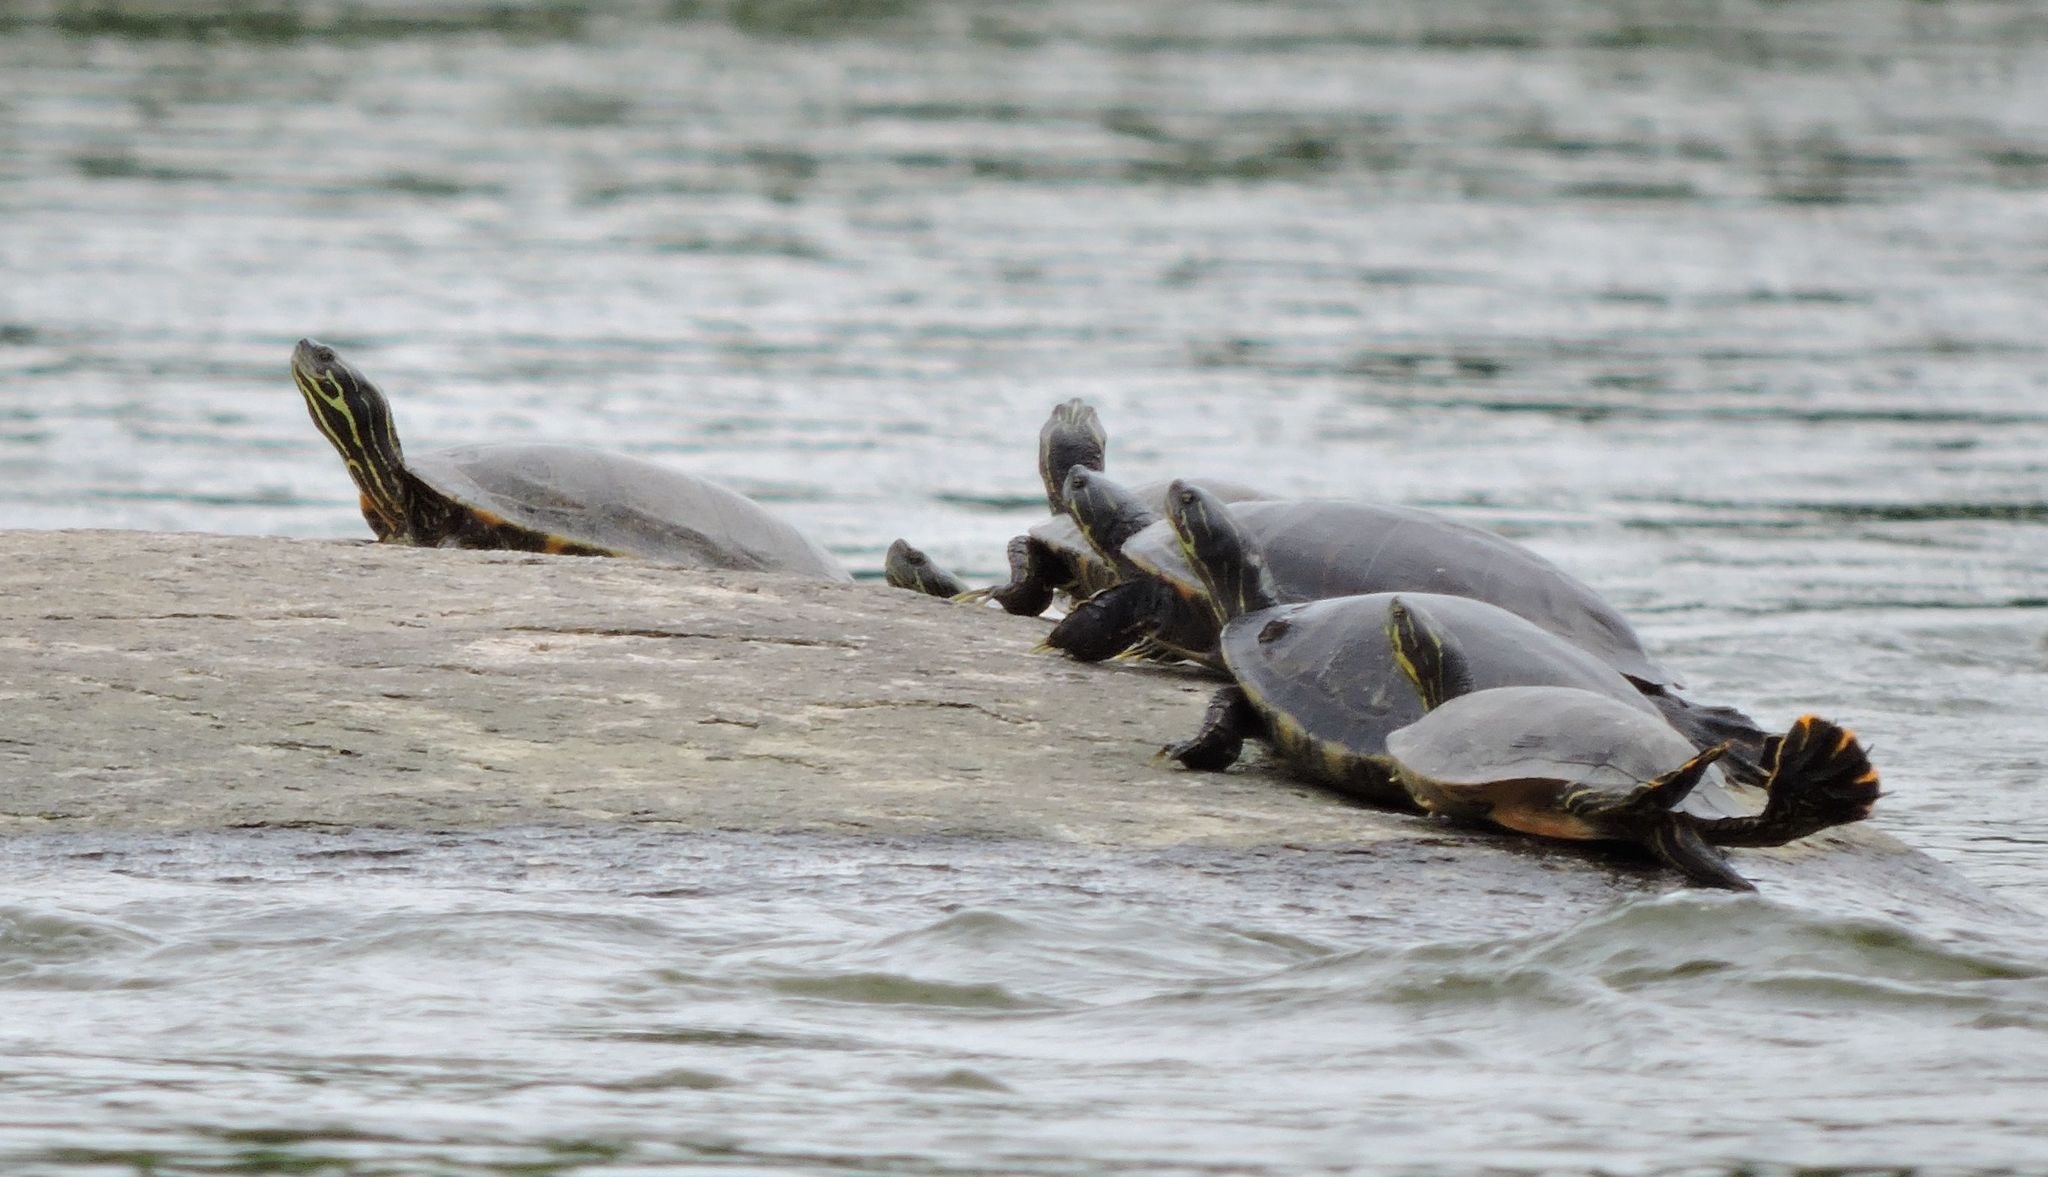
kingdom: Animalia
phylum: Chordata
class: Testudines
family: Emydidae
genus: Pseudemys
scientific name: Pseudemys concinna
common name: Eastern river cooter
